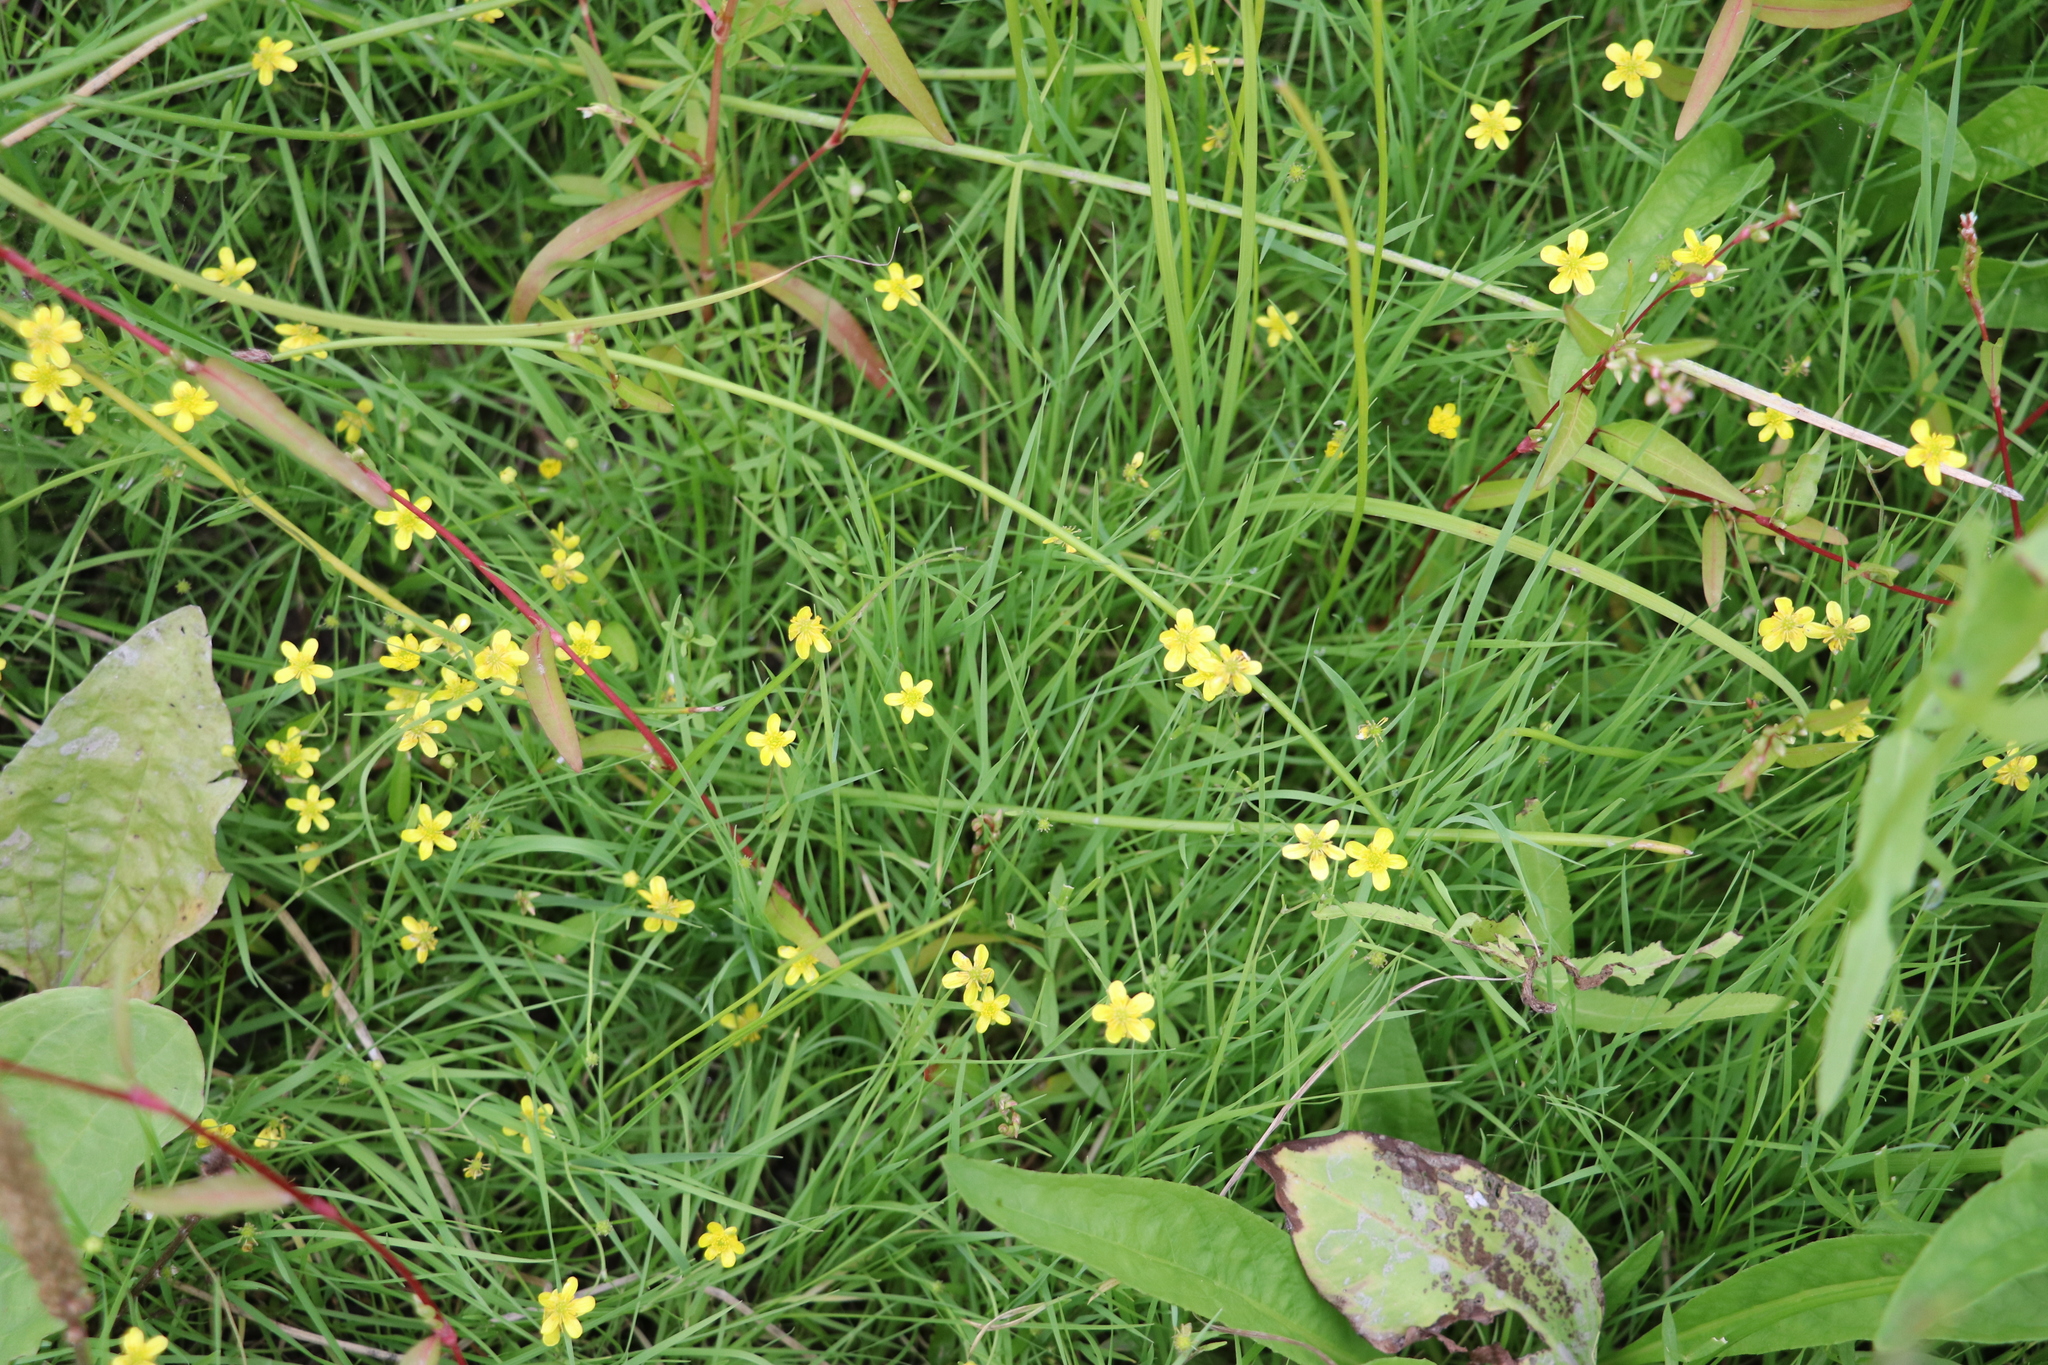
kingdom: Plantae
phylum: Tracheophyta
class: Magnoliopsida
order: Ranunculales
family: Ranunculaceae
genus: Ranunculus
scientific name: Ranunculus reptans
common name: Creeping spearwort
